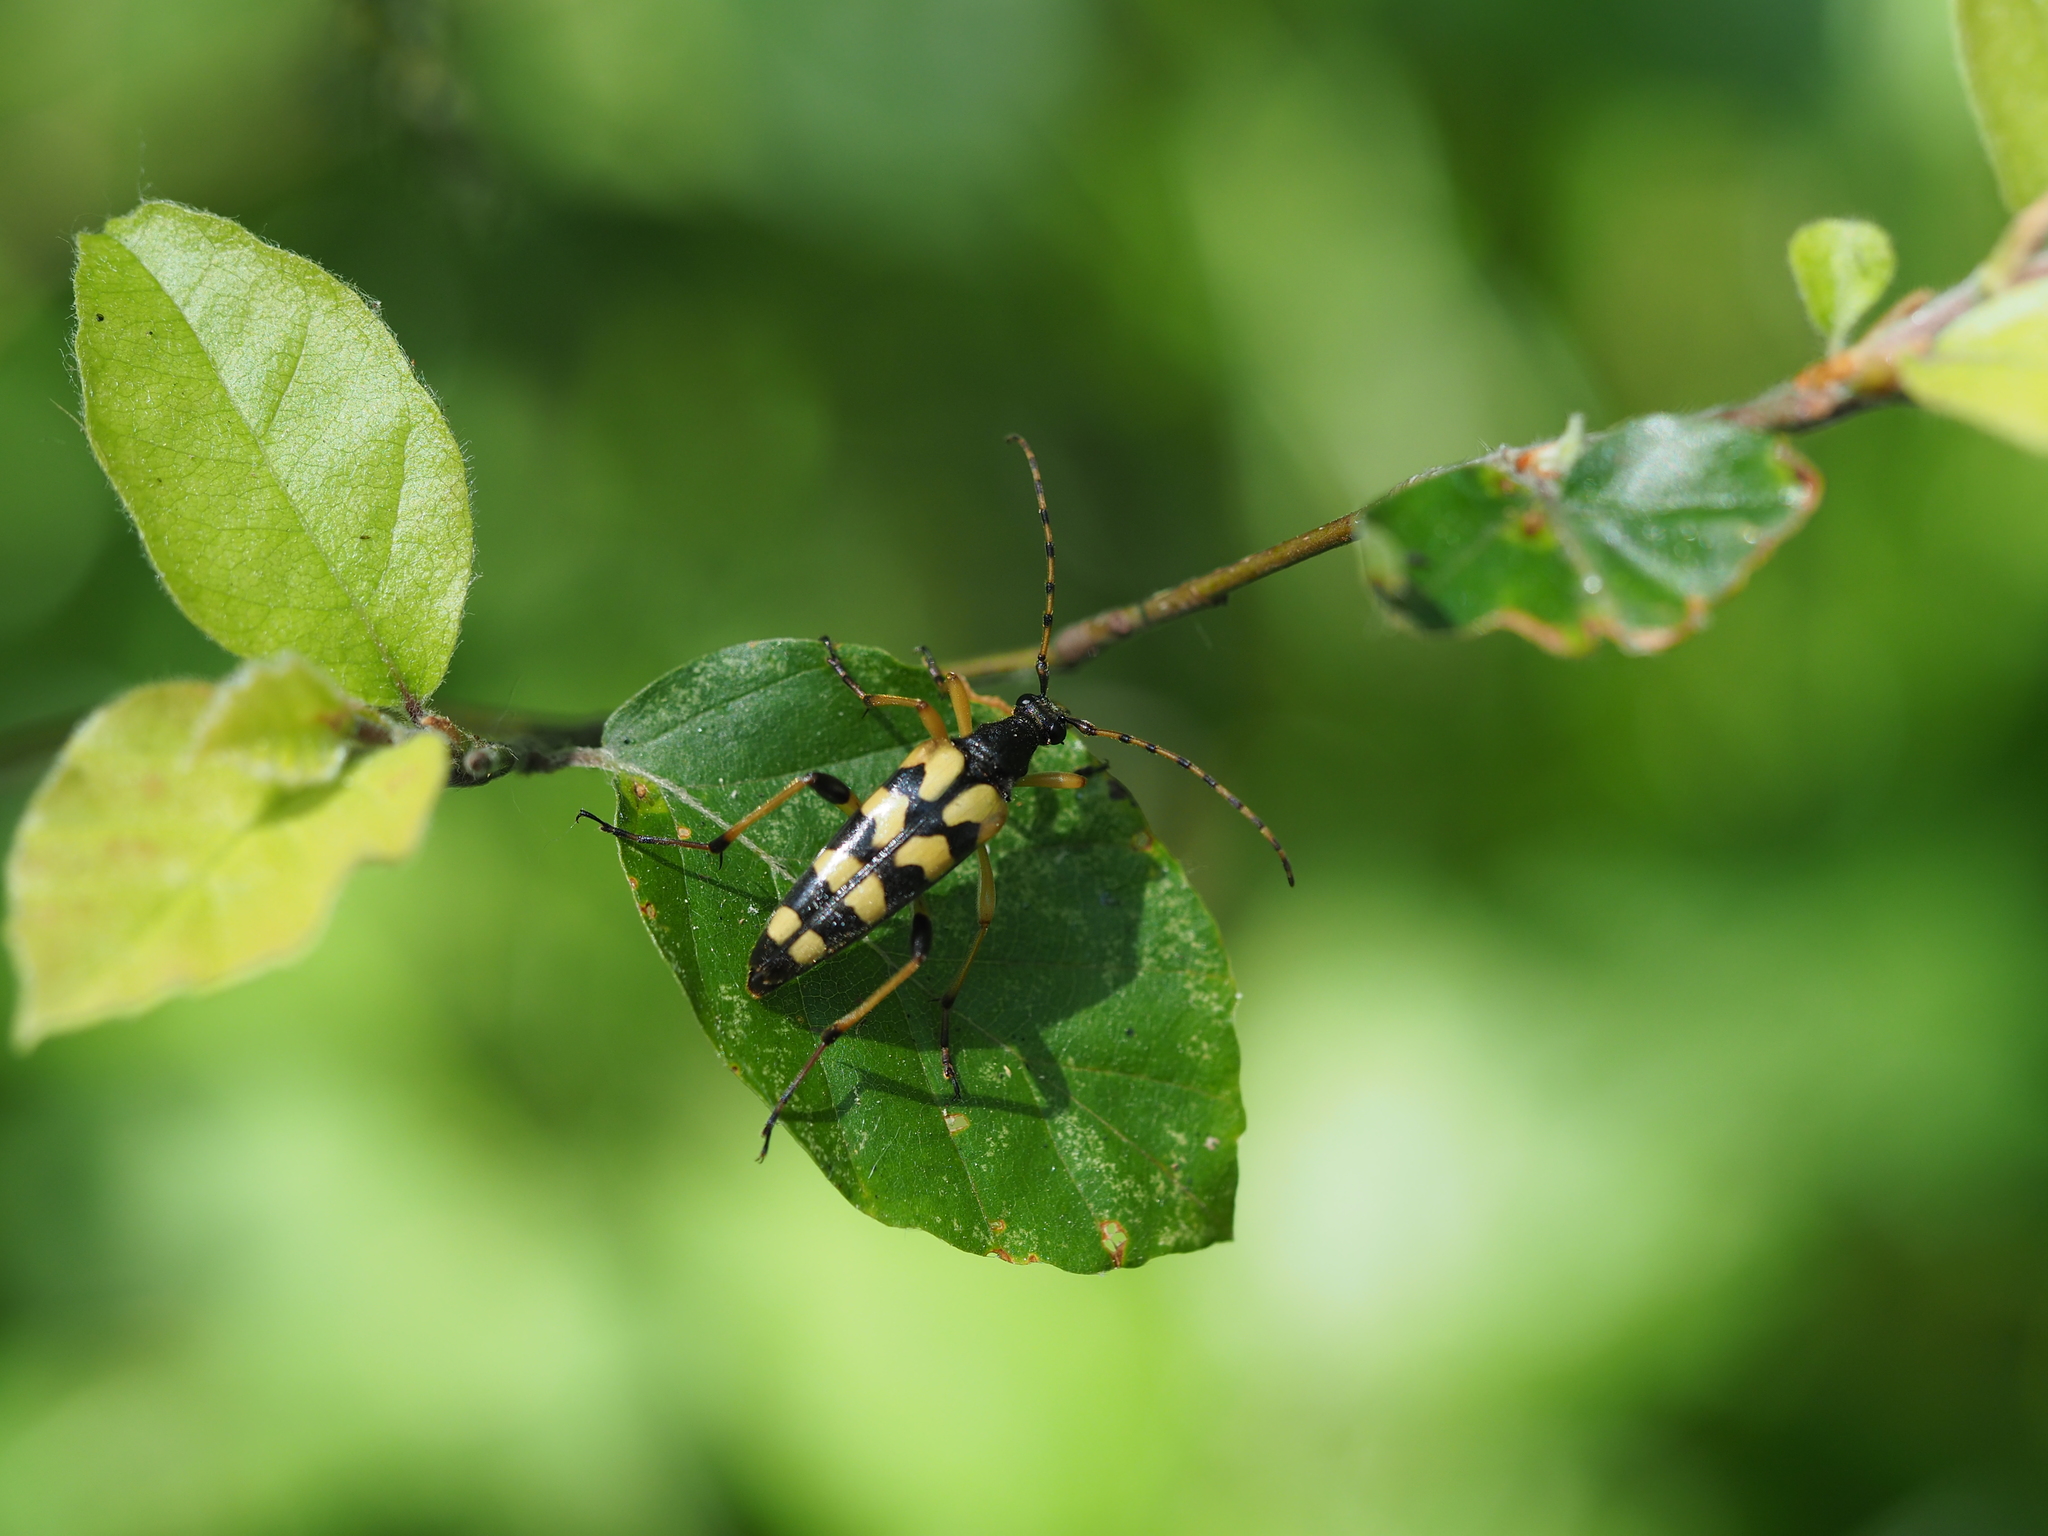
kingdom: Animalia
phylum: Arthropoda
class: Insecta
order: Coleoptera
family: Cerambycidae
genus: Rutpela
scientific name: Rutpela maculata
